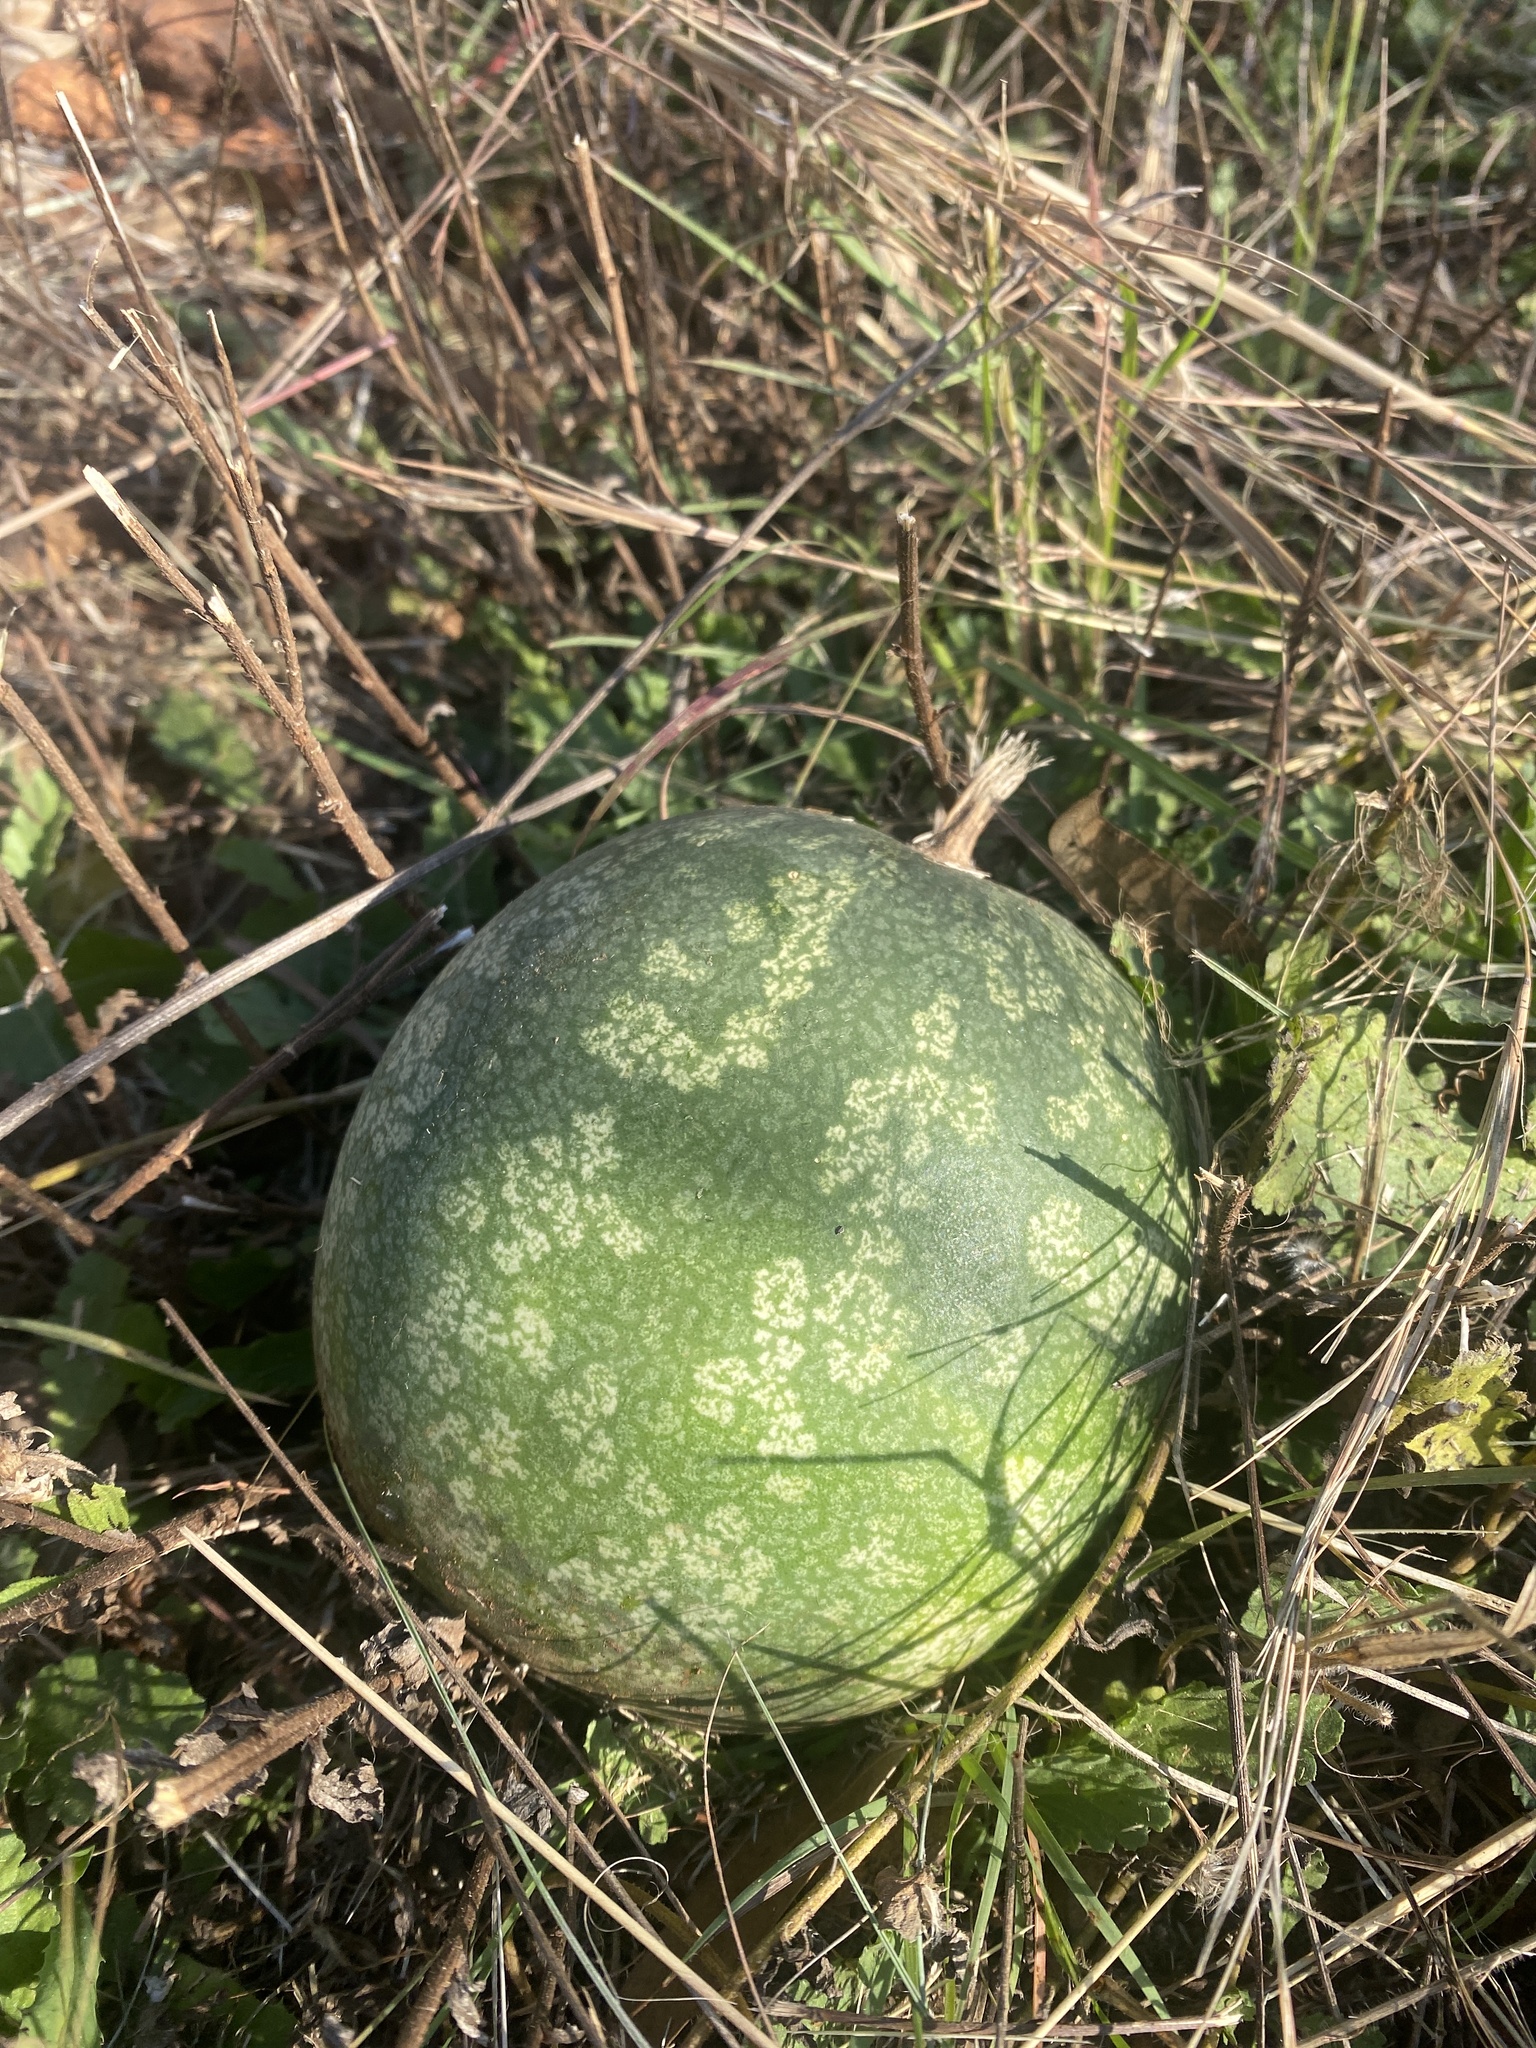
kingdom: Plantae
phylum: Tracheophyta
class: Magnoliopsida
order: Cucurbitales
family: Cucurbitaceae
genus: Citrullus
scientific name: Citrullus amarus
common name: Fodder-melon
